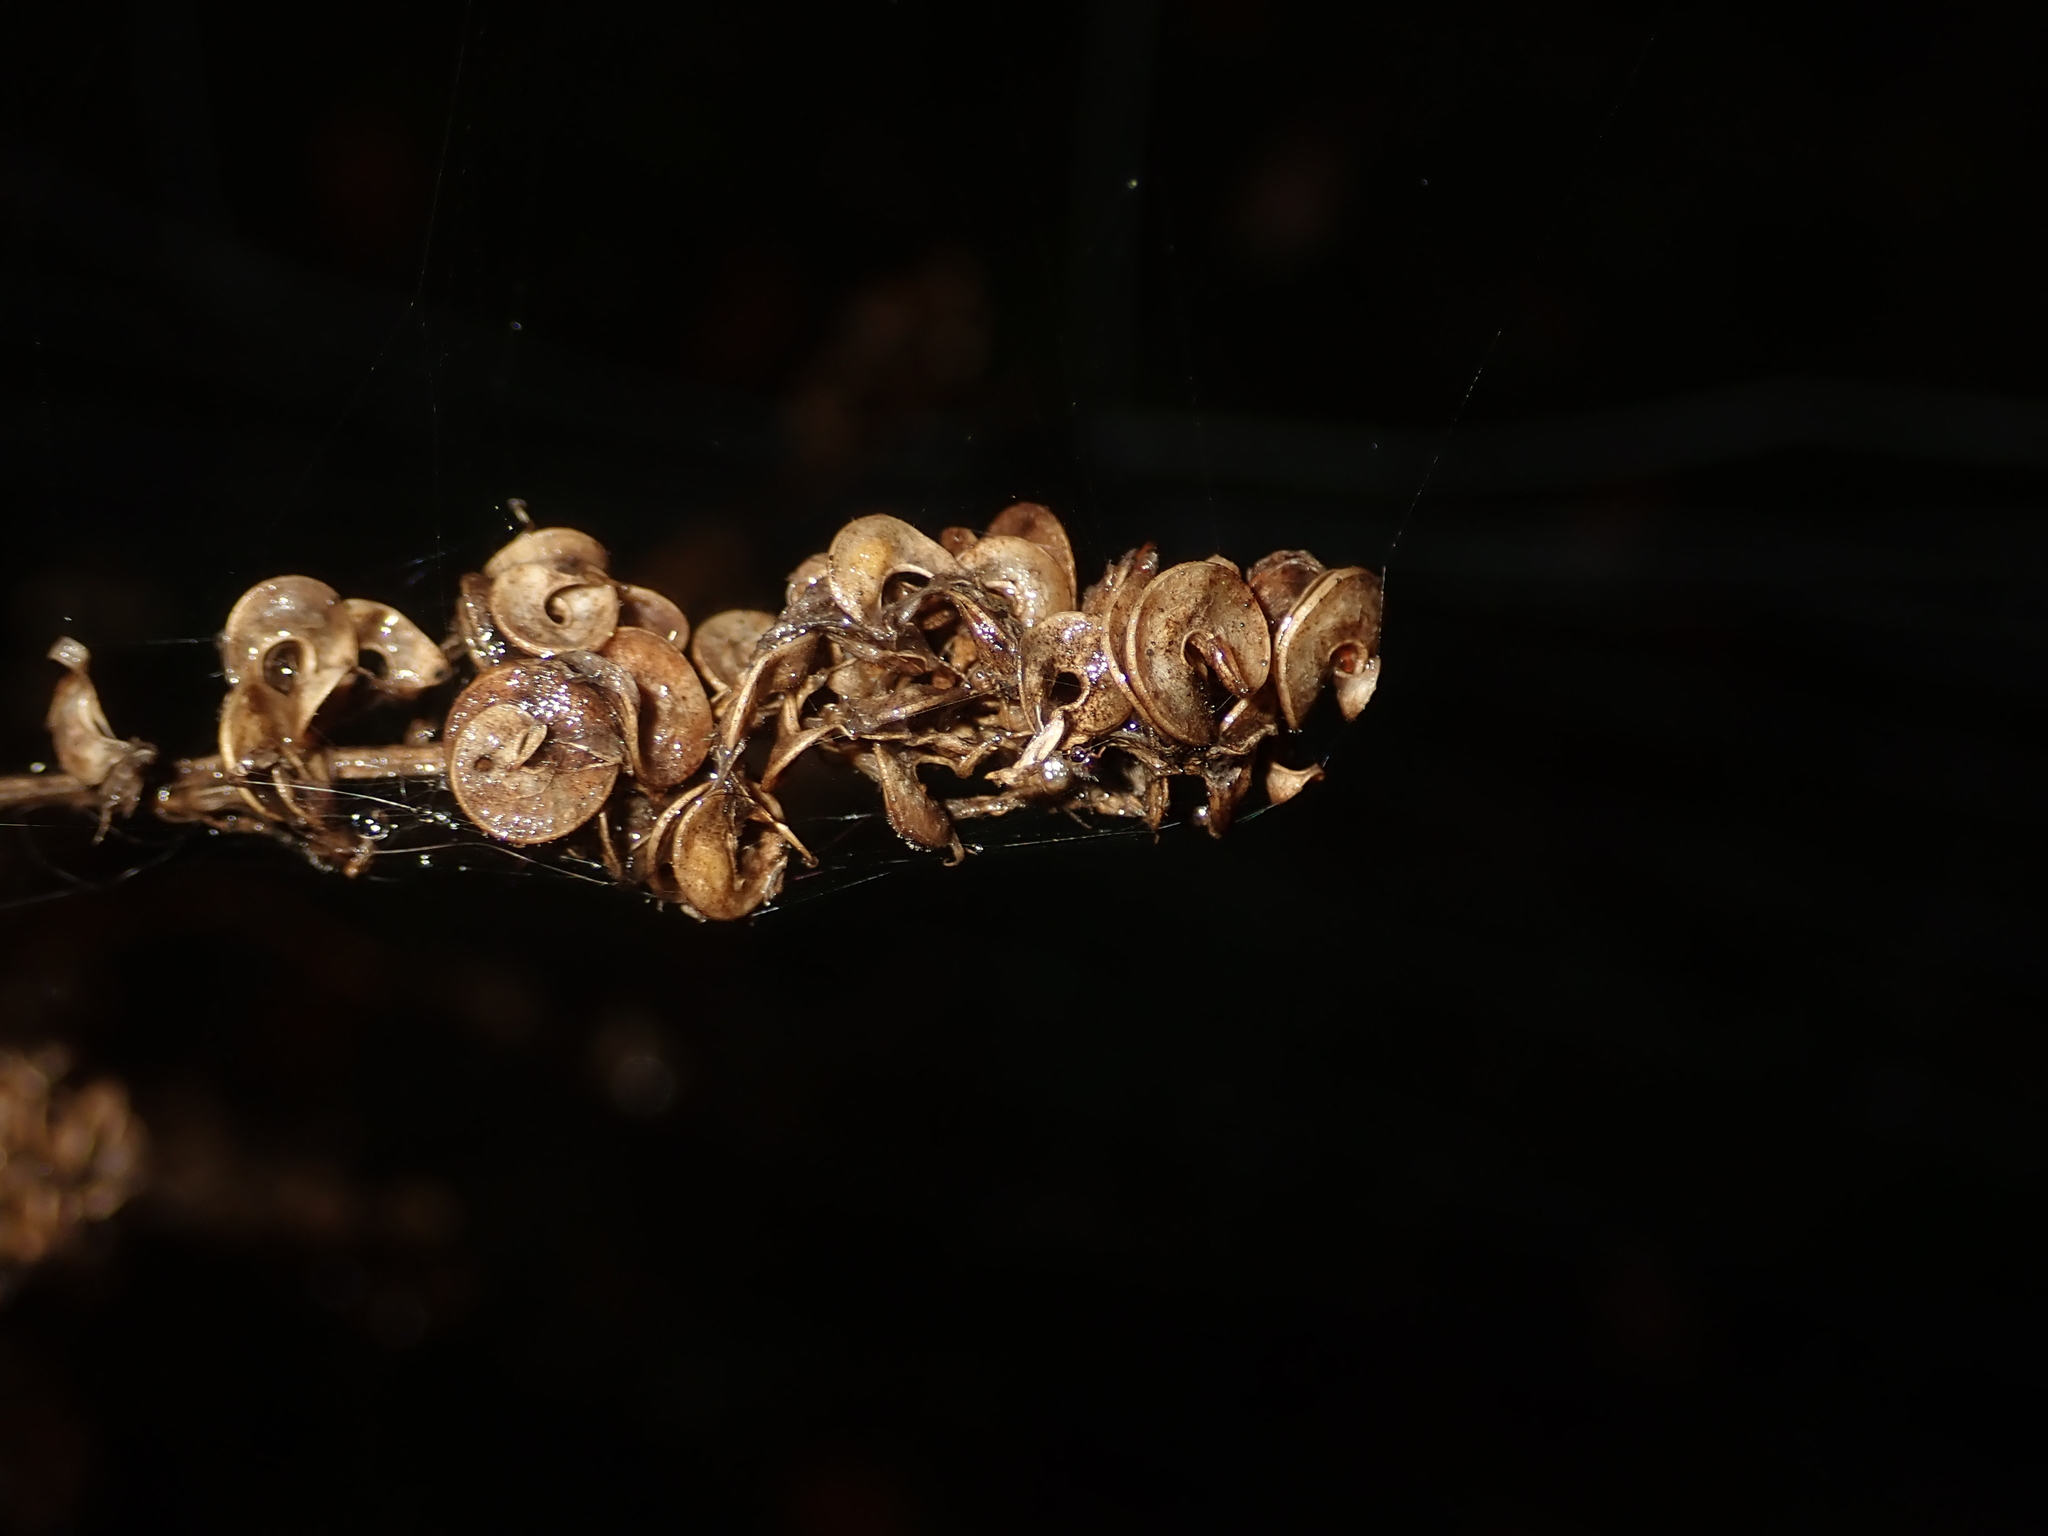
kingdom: Plantae
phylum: Tracheophyta
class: Magnoliopsida
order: Fabales
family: Fabaceae
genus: Medicago
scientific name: Medicago sativa
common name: Alfalfa
